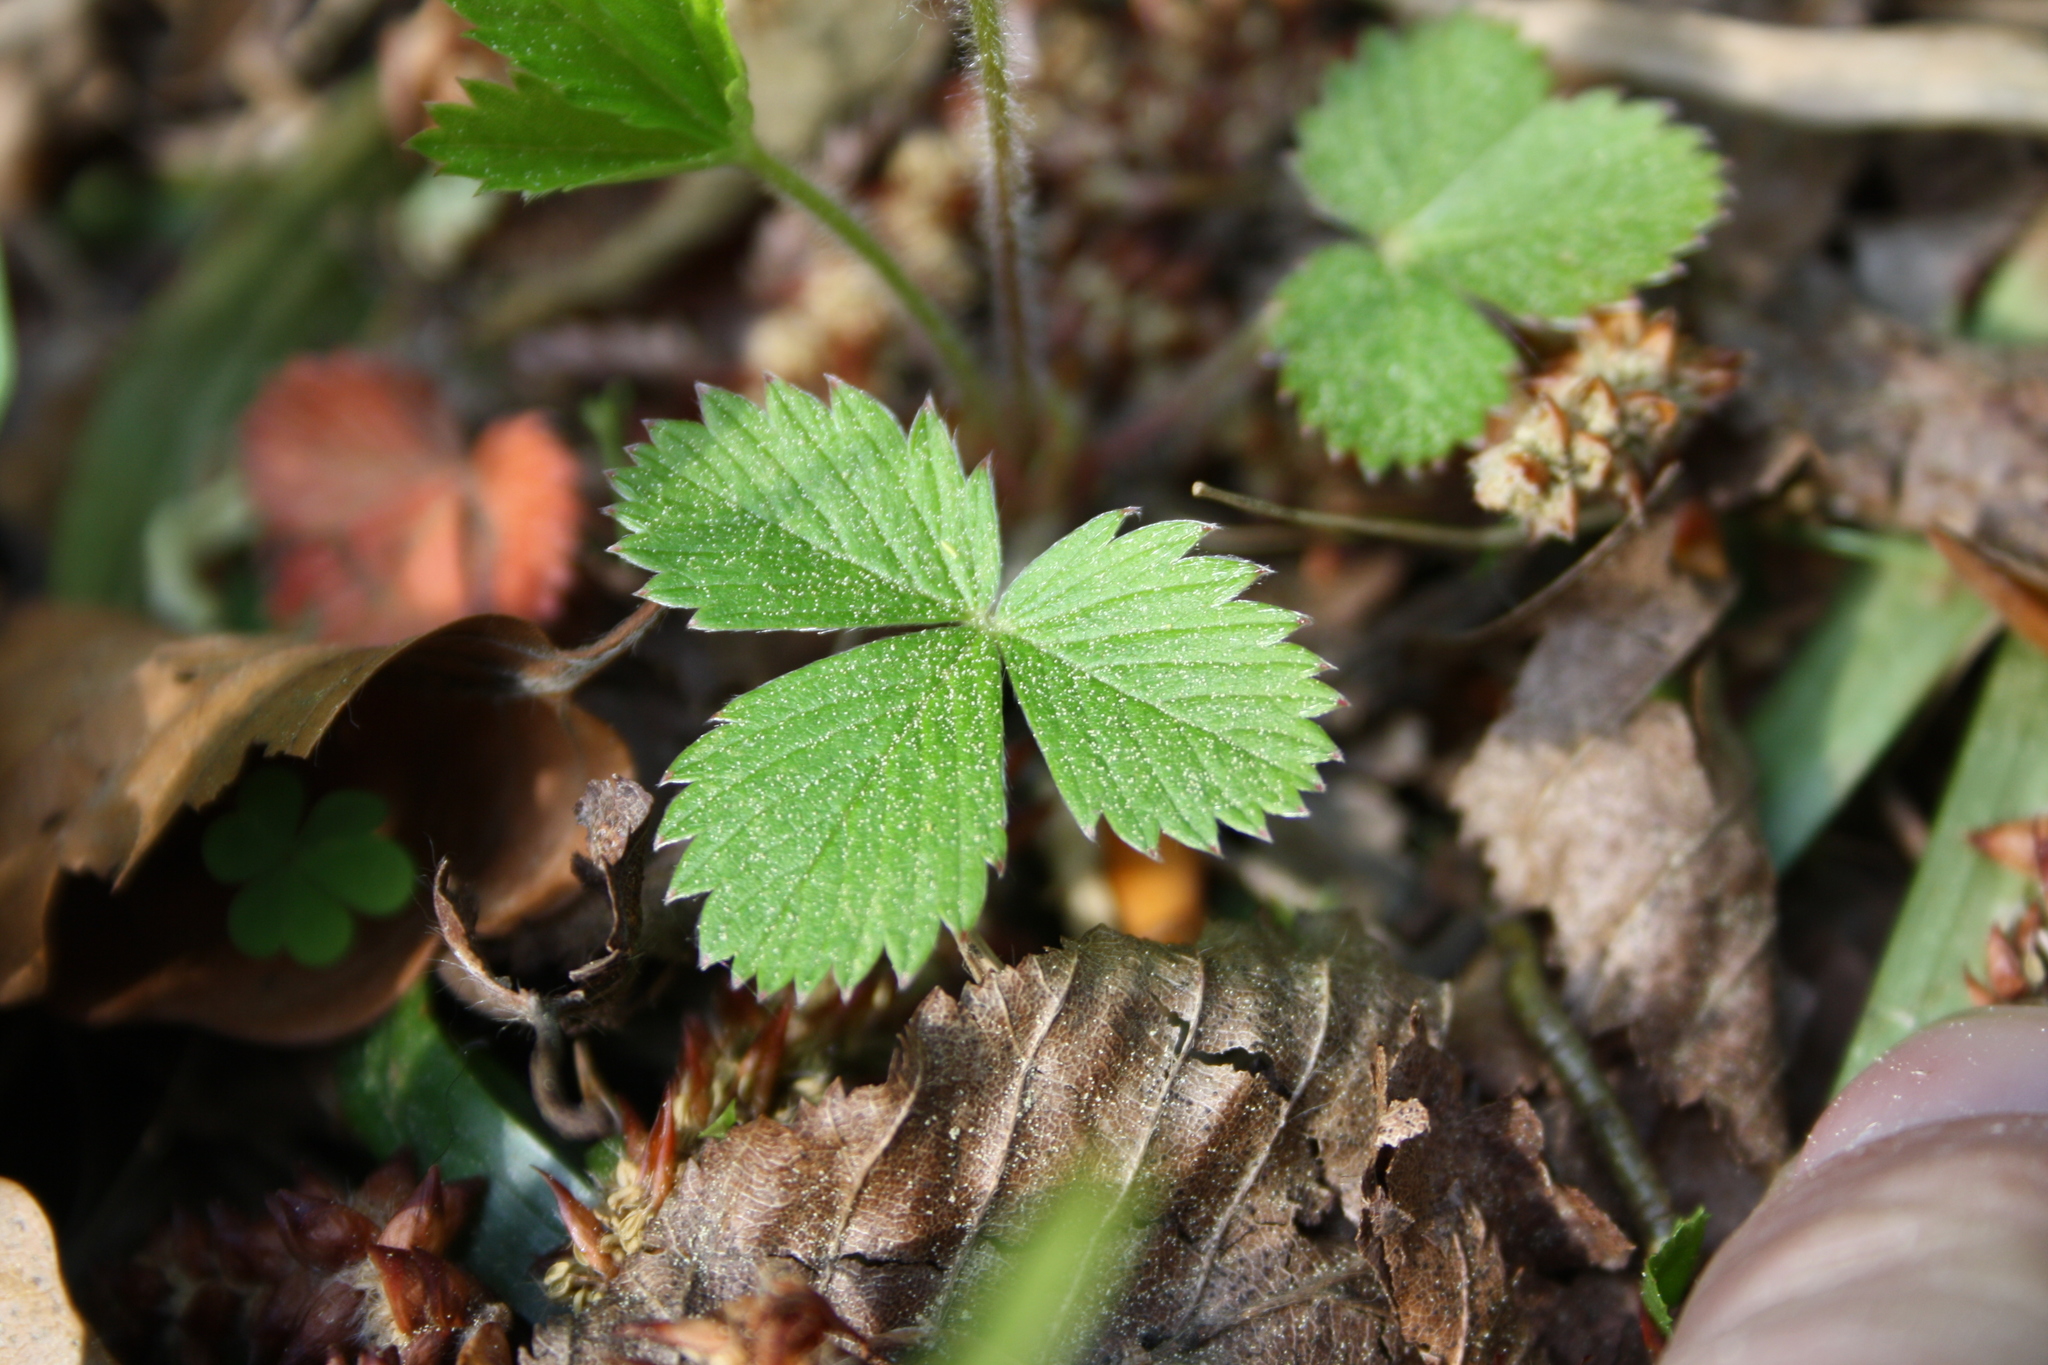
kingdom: Plantae
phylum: Tracheophyta
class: Magnoliopsida
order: Rosales
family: Rosaceae
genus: Fragaria
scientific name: Fragaria vesca
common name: Wild strawberry
